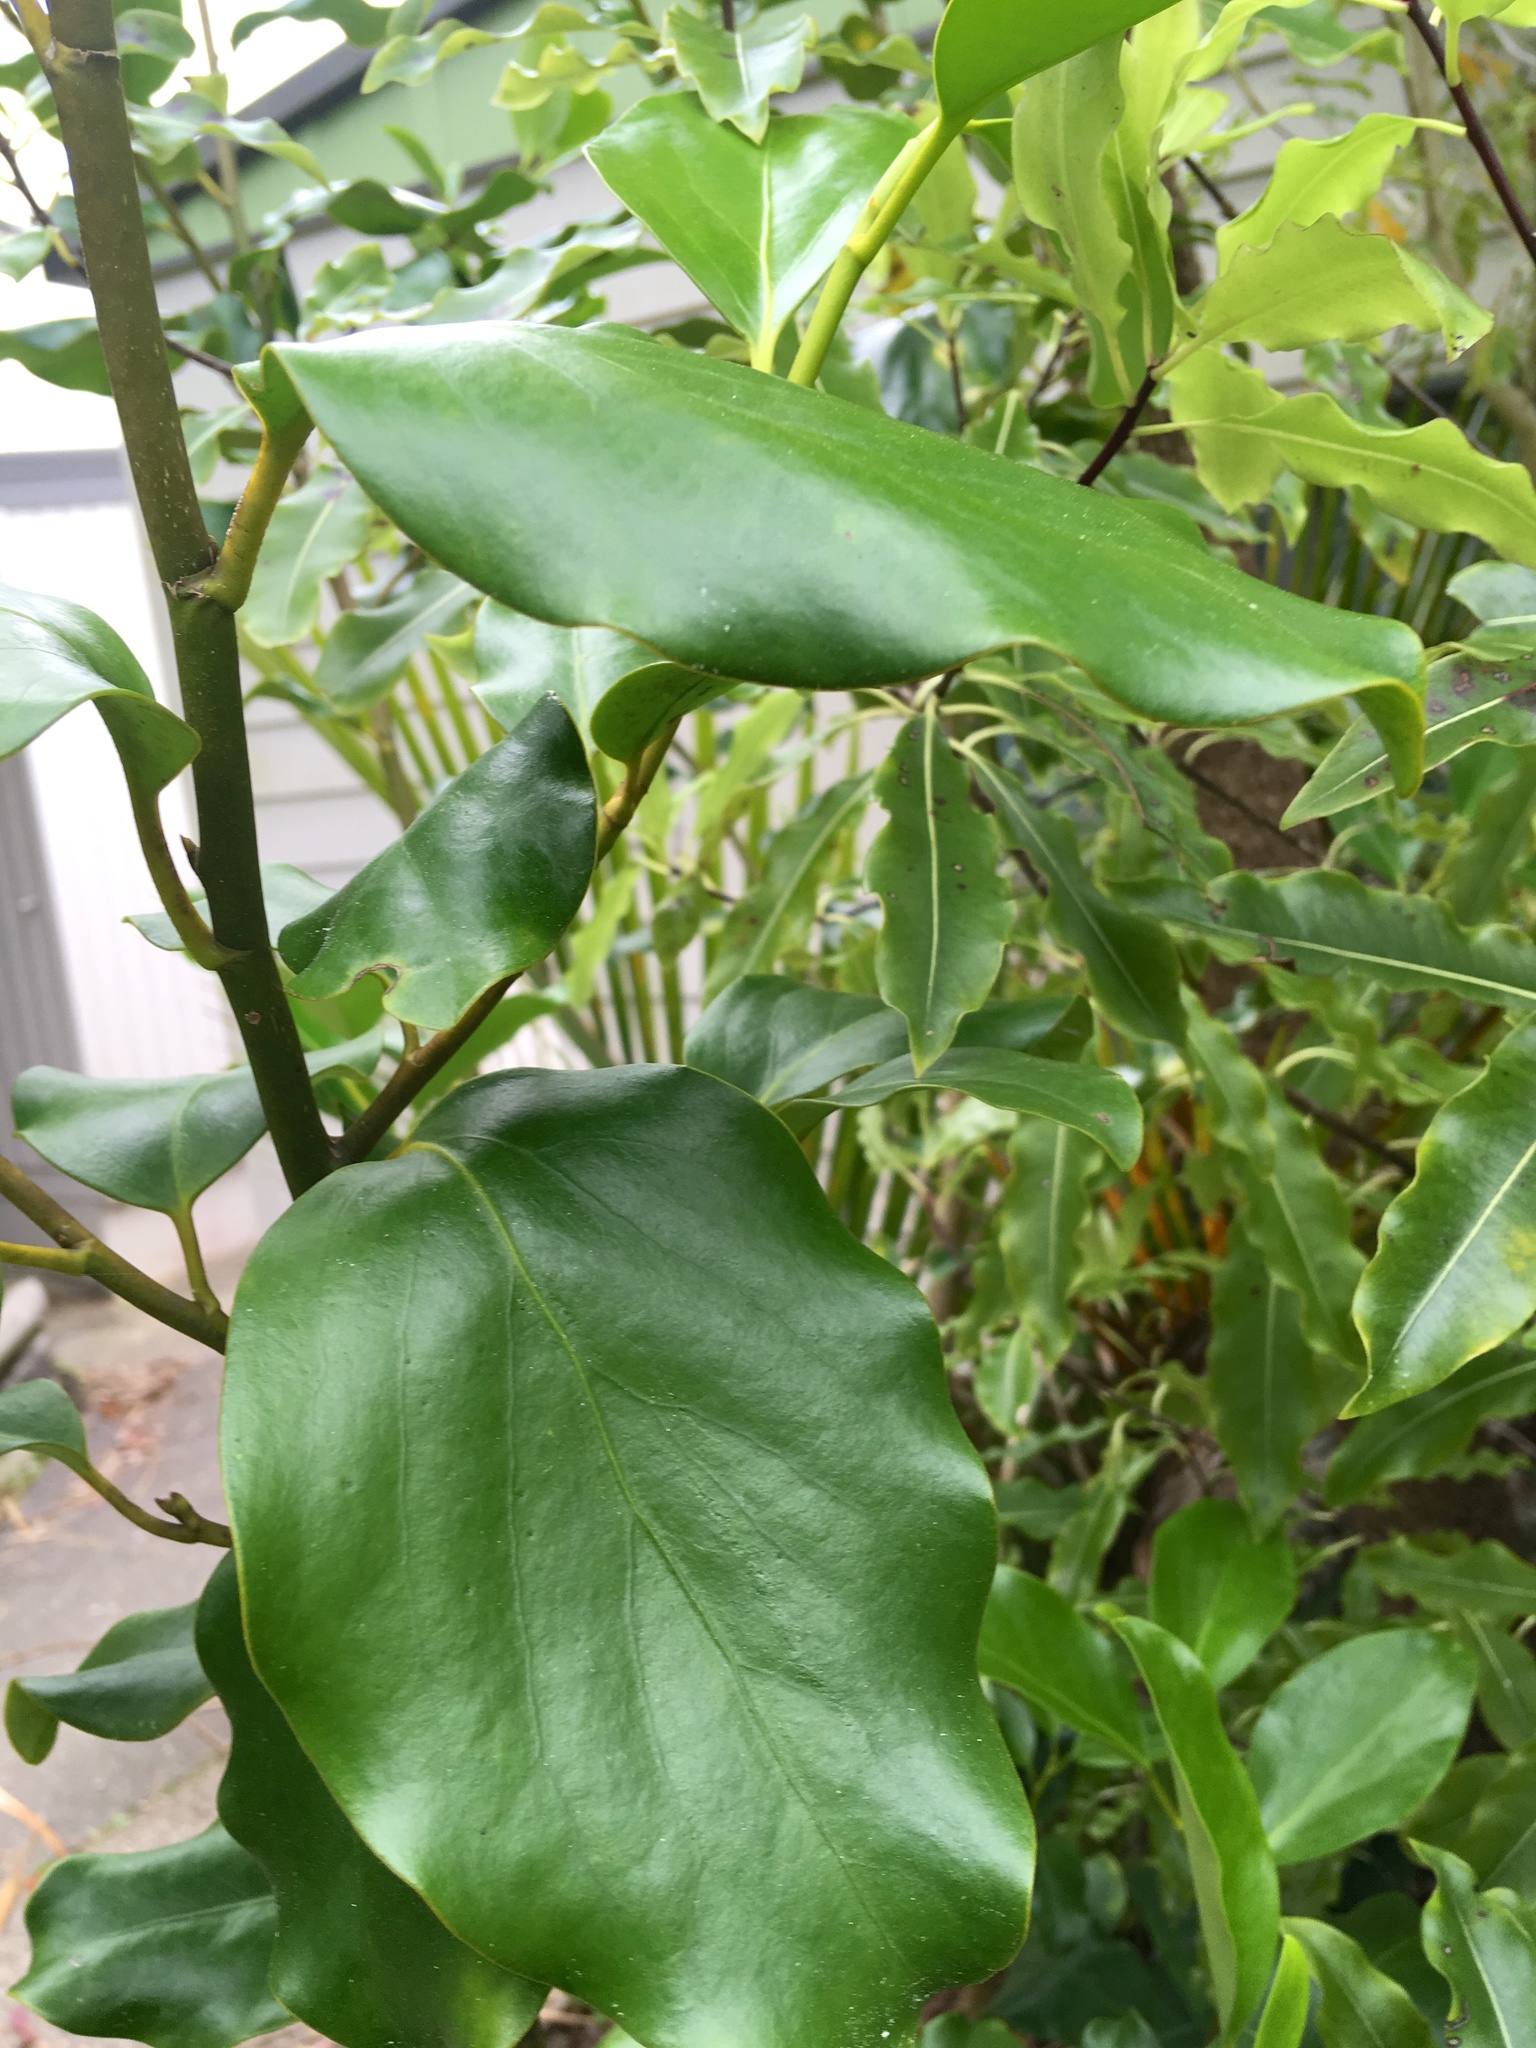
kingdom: Plantae
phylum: Tracheophyta
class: Magnoliopsida
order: Apiales
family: Griseliniaceae
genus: Griselinia
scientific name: Griselinia littoralis
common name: New zealand broadleaf
